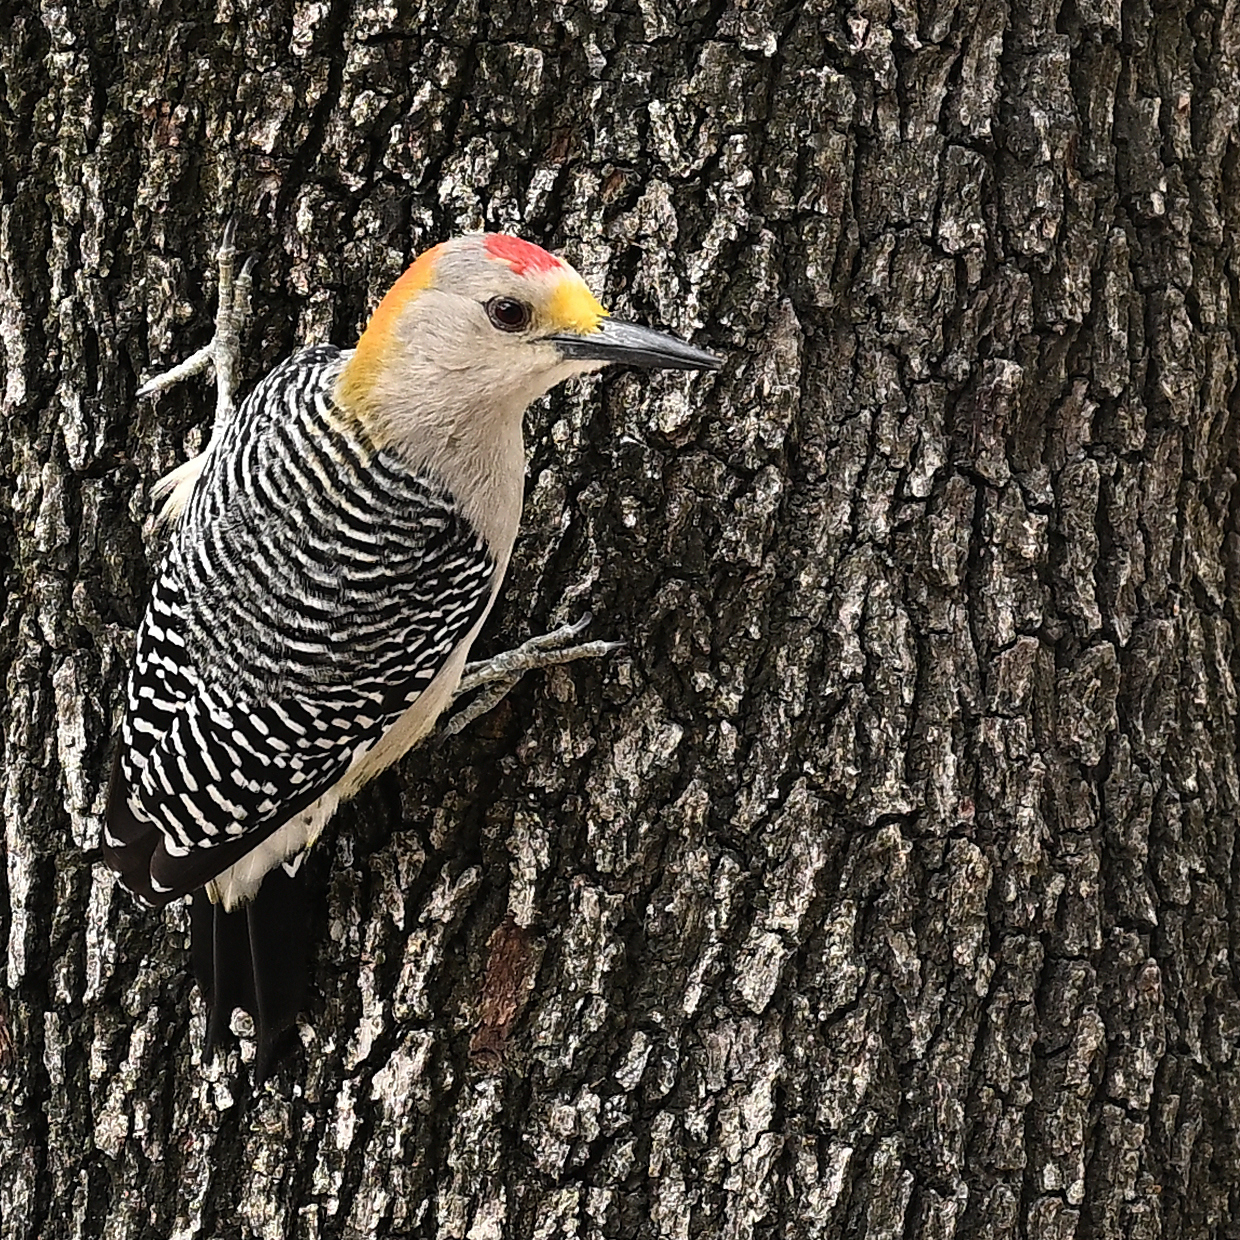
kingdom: Animalia
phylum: Chordata
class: Aves
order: Piciformes
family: Picidae
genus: Melanerpes
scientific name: Melanerpes aurifrons
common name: Golden-fronted woodpecker
